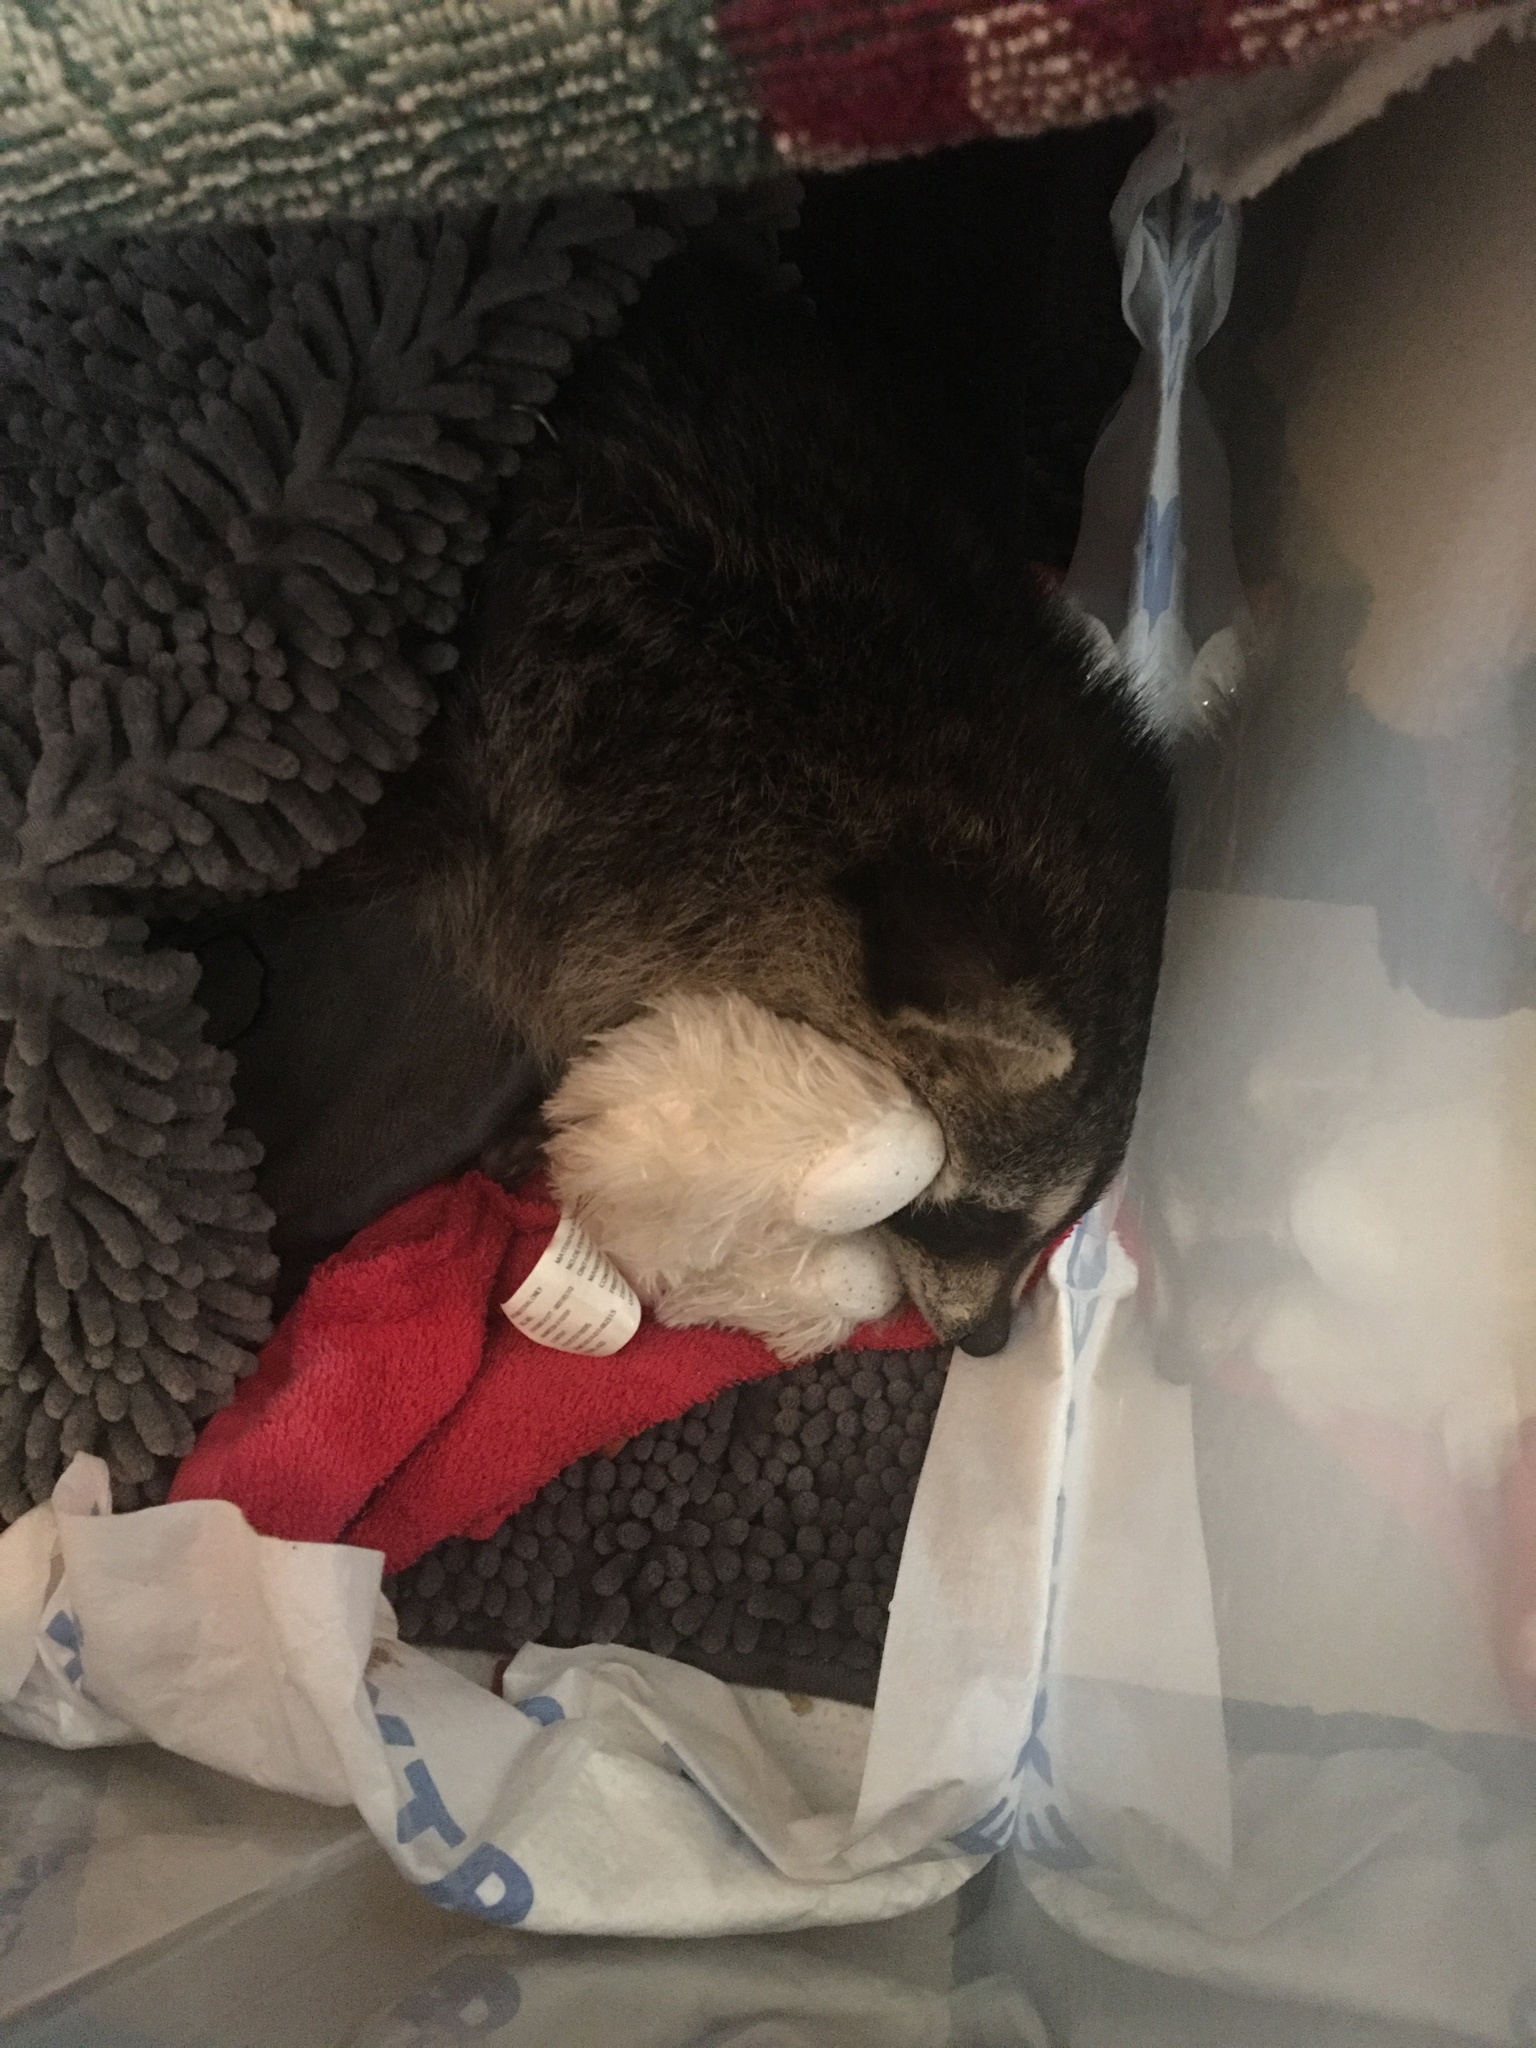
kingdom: Animalia
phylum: Chordata
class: Mammalia
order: Carnivora
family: Procyonidae
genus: Procyon
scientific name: Procyon lotor
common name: Raccoon
